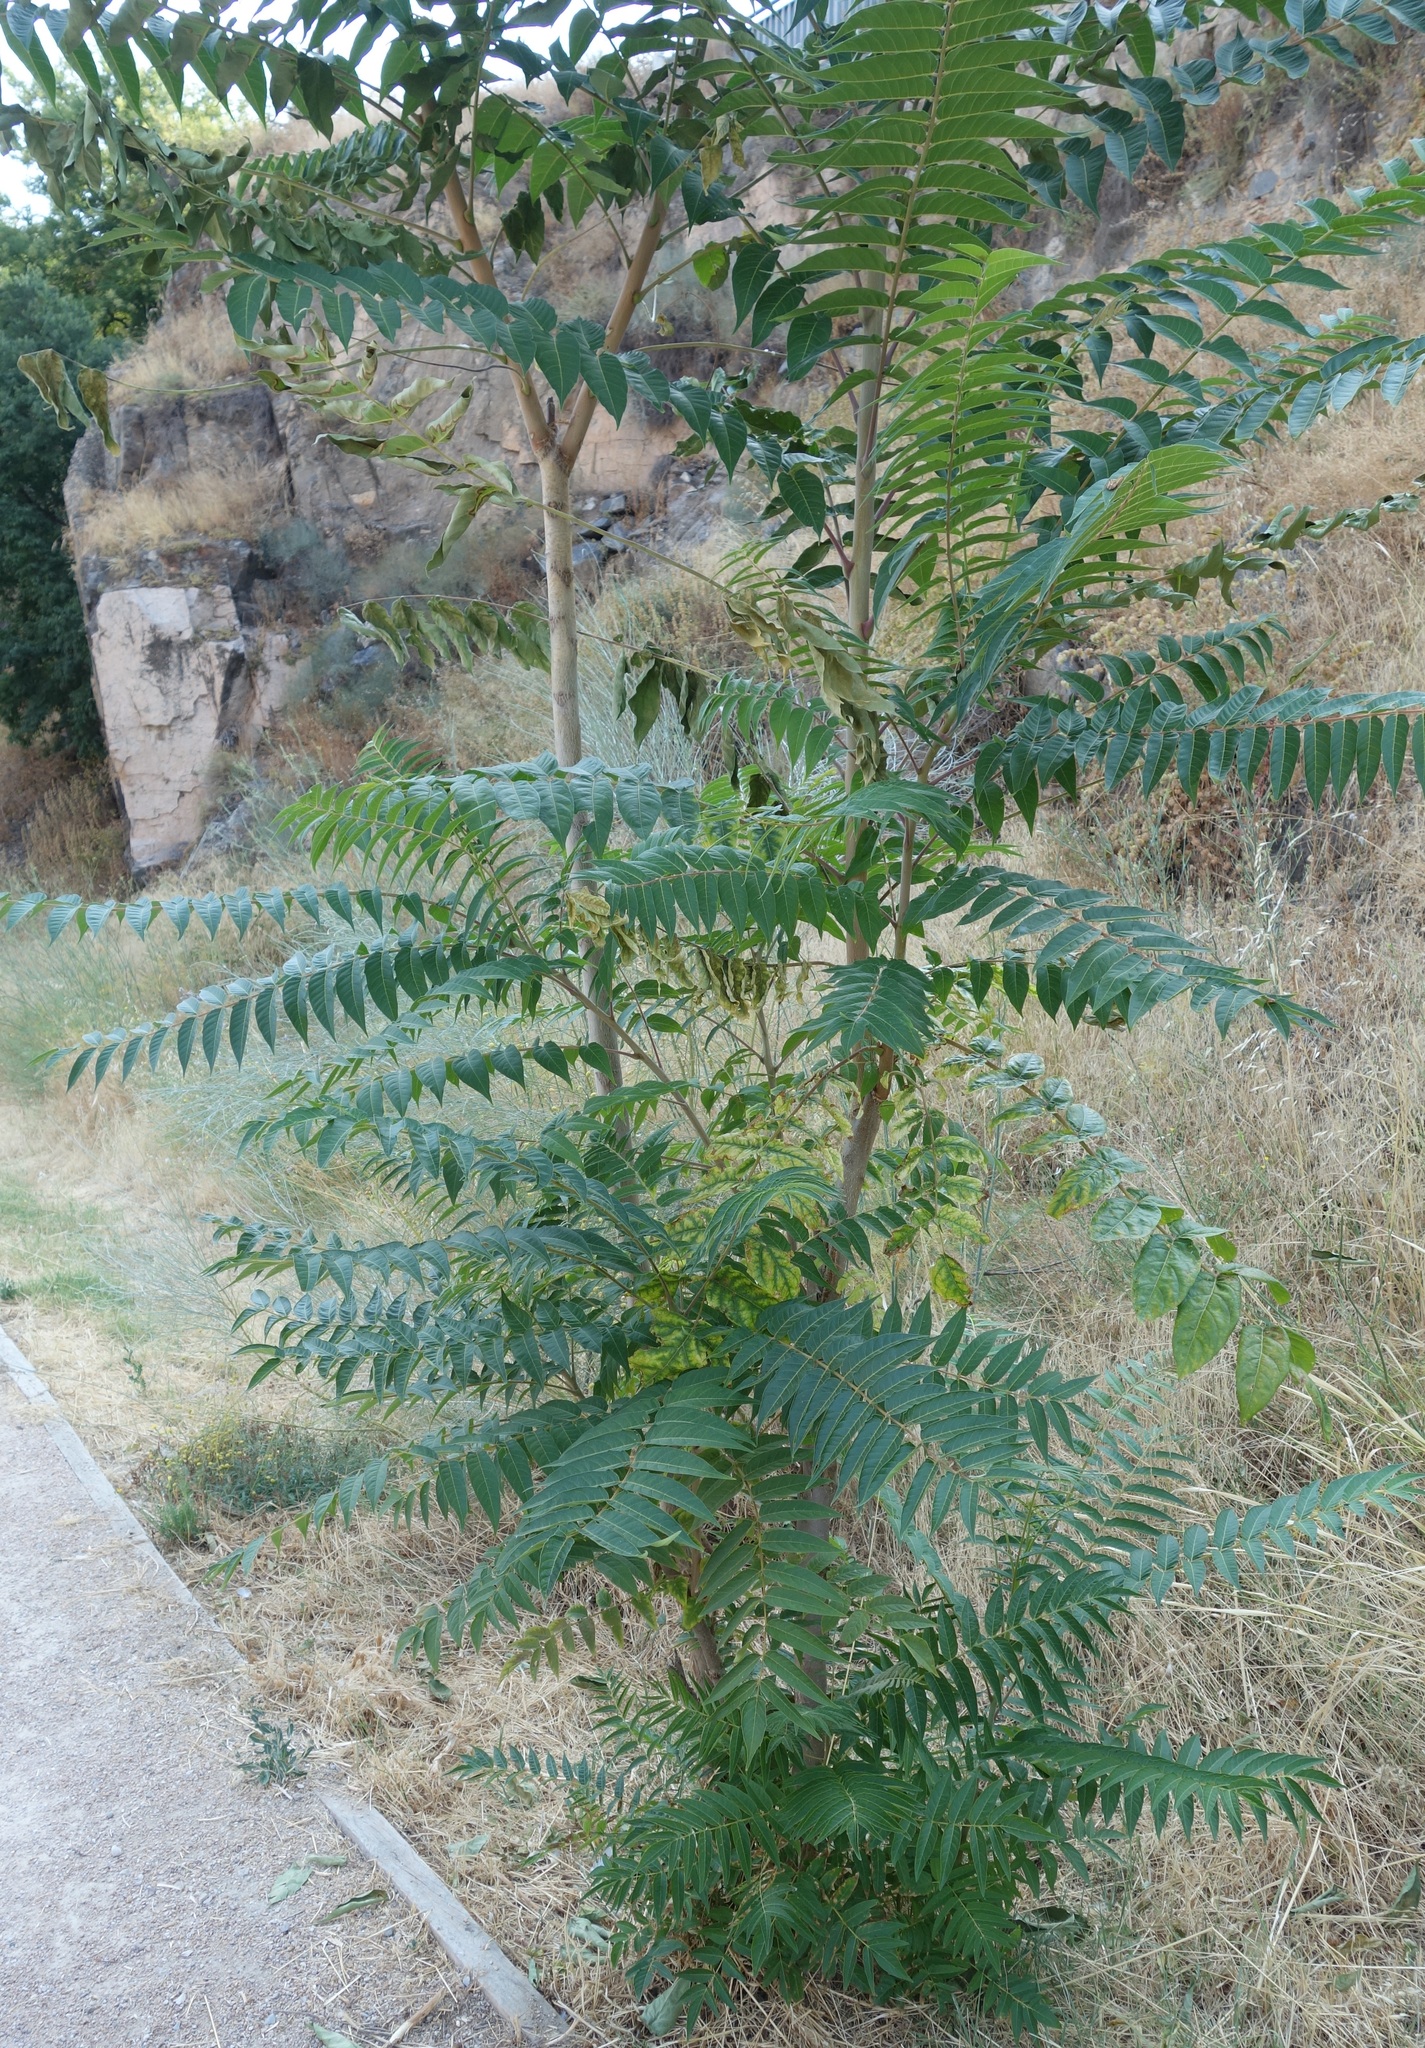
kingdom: Plantae
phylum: Tracheophyta
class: Magnoliopsida
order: Sapindales
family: Simaroubaceae
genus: Ailanthus
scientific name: Ailanthus altissima
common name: Tree-of-heaven
